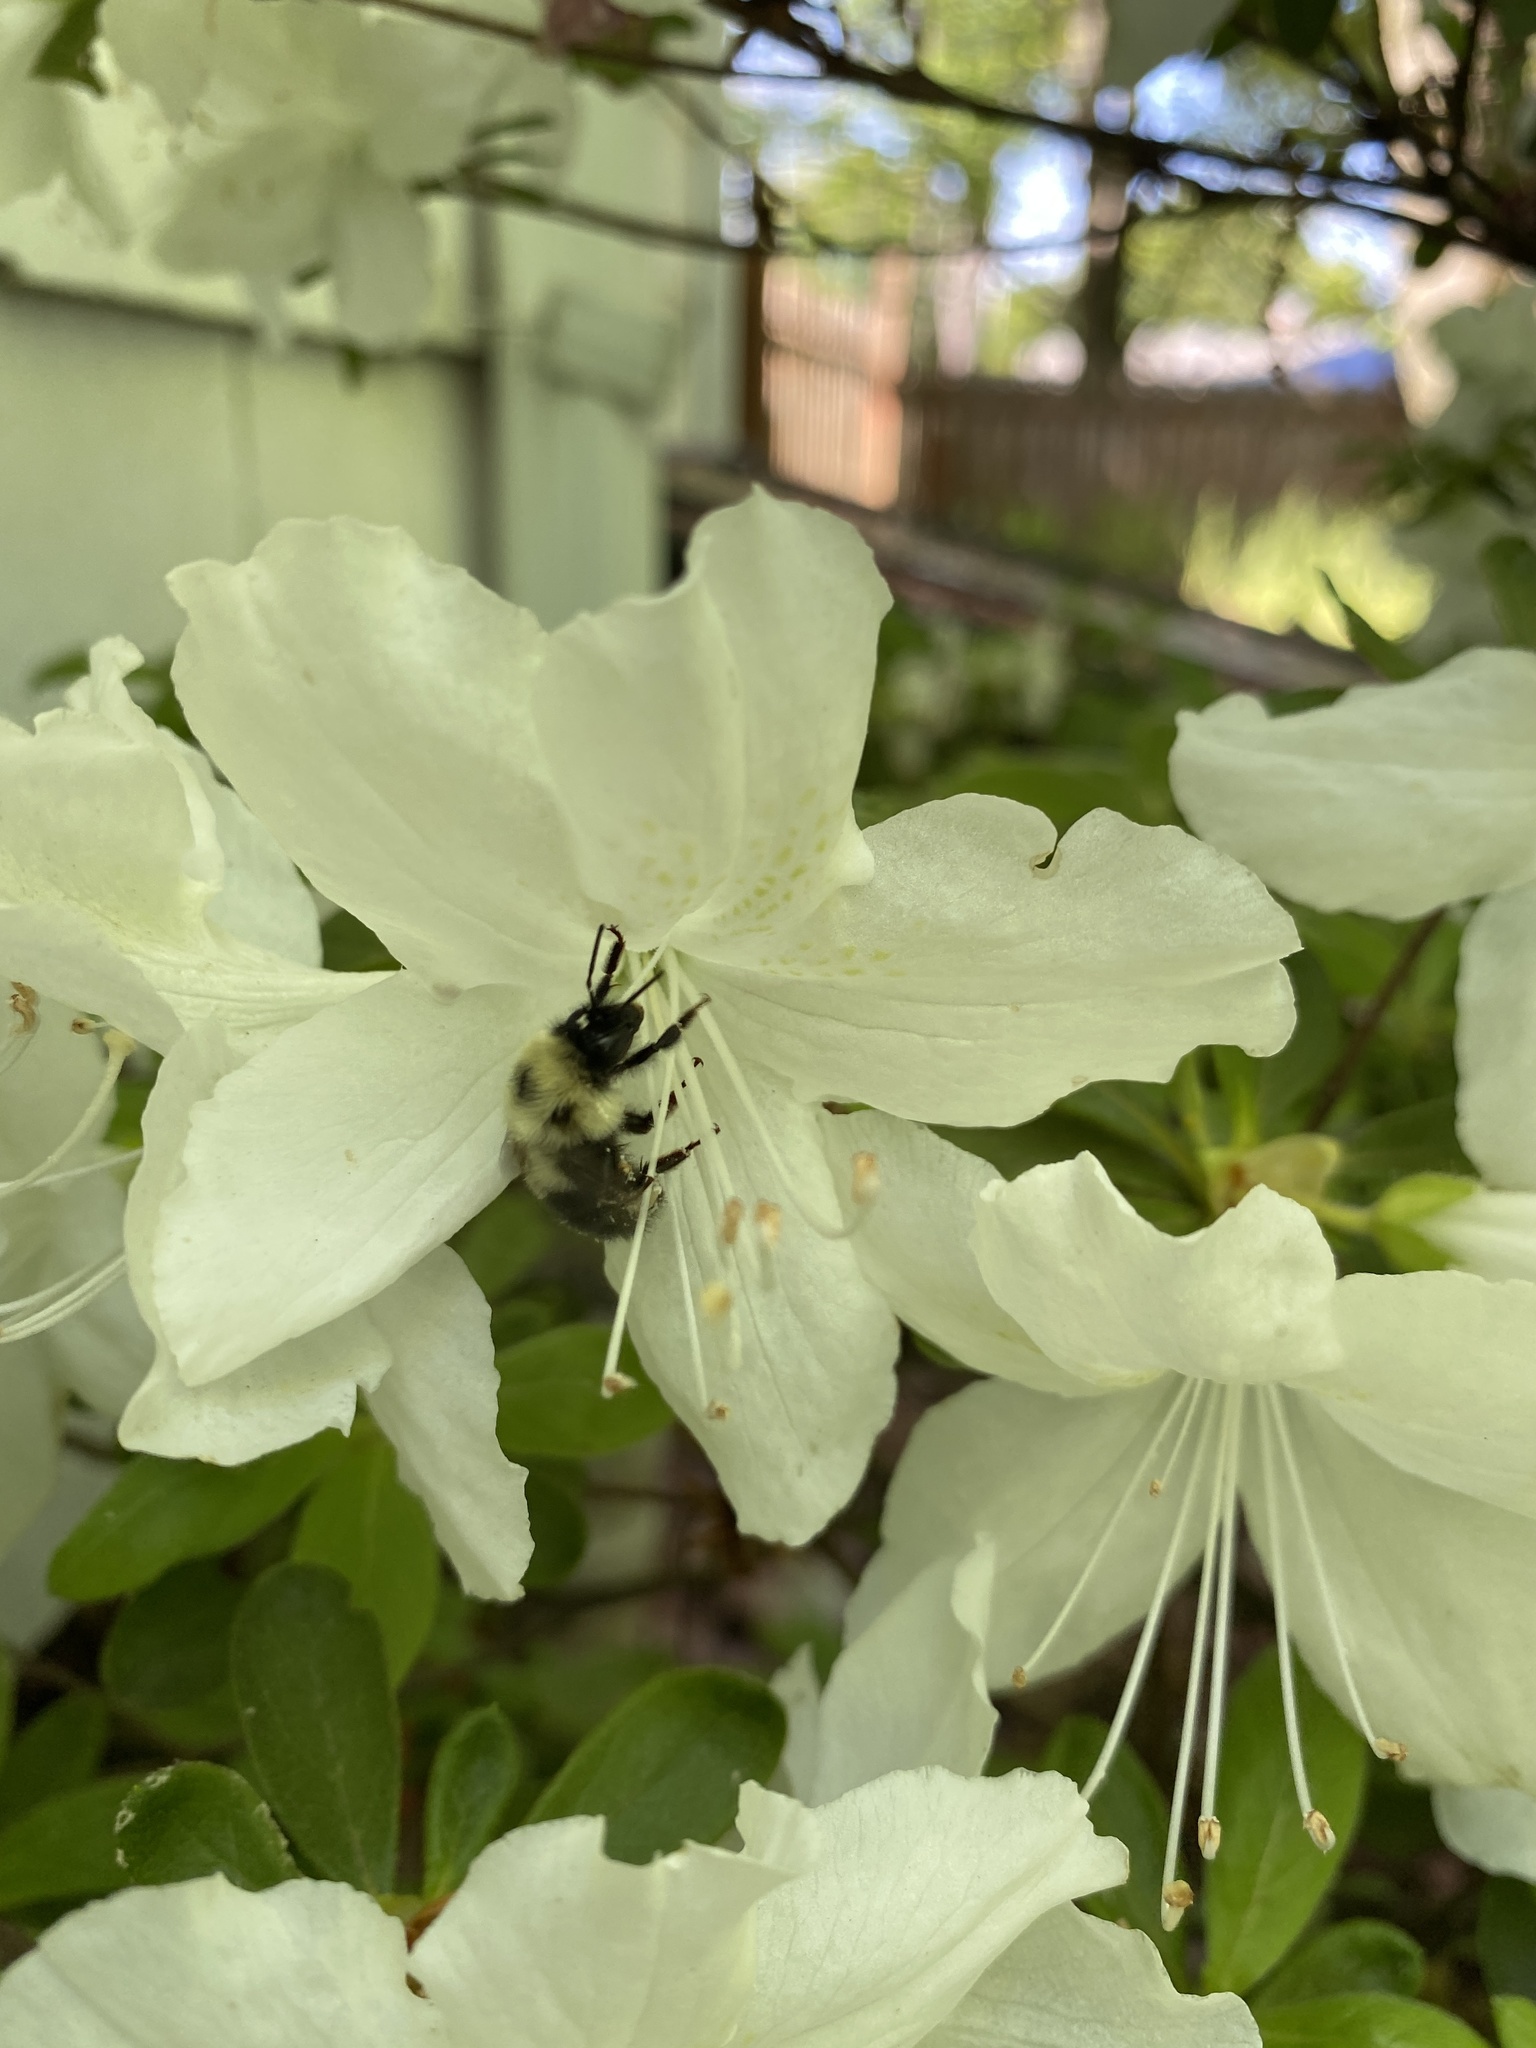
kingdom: Animalia
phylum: Arthropoda
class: Insecta
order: Hymenoptera
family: Apidae
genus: Bombus
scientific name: Bombus bimaculatus
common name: Two-spotted bumble bee
